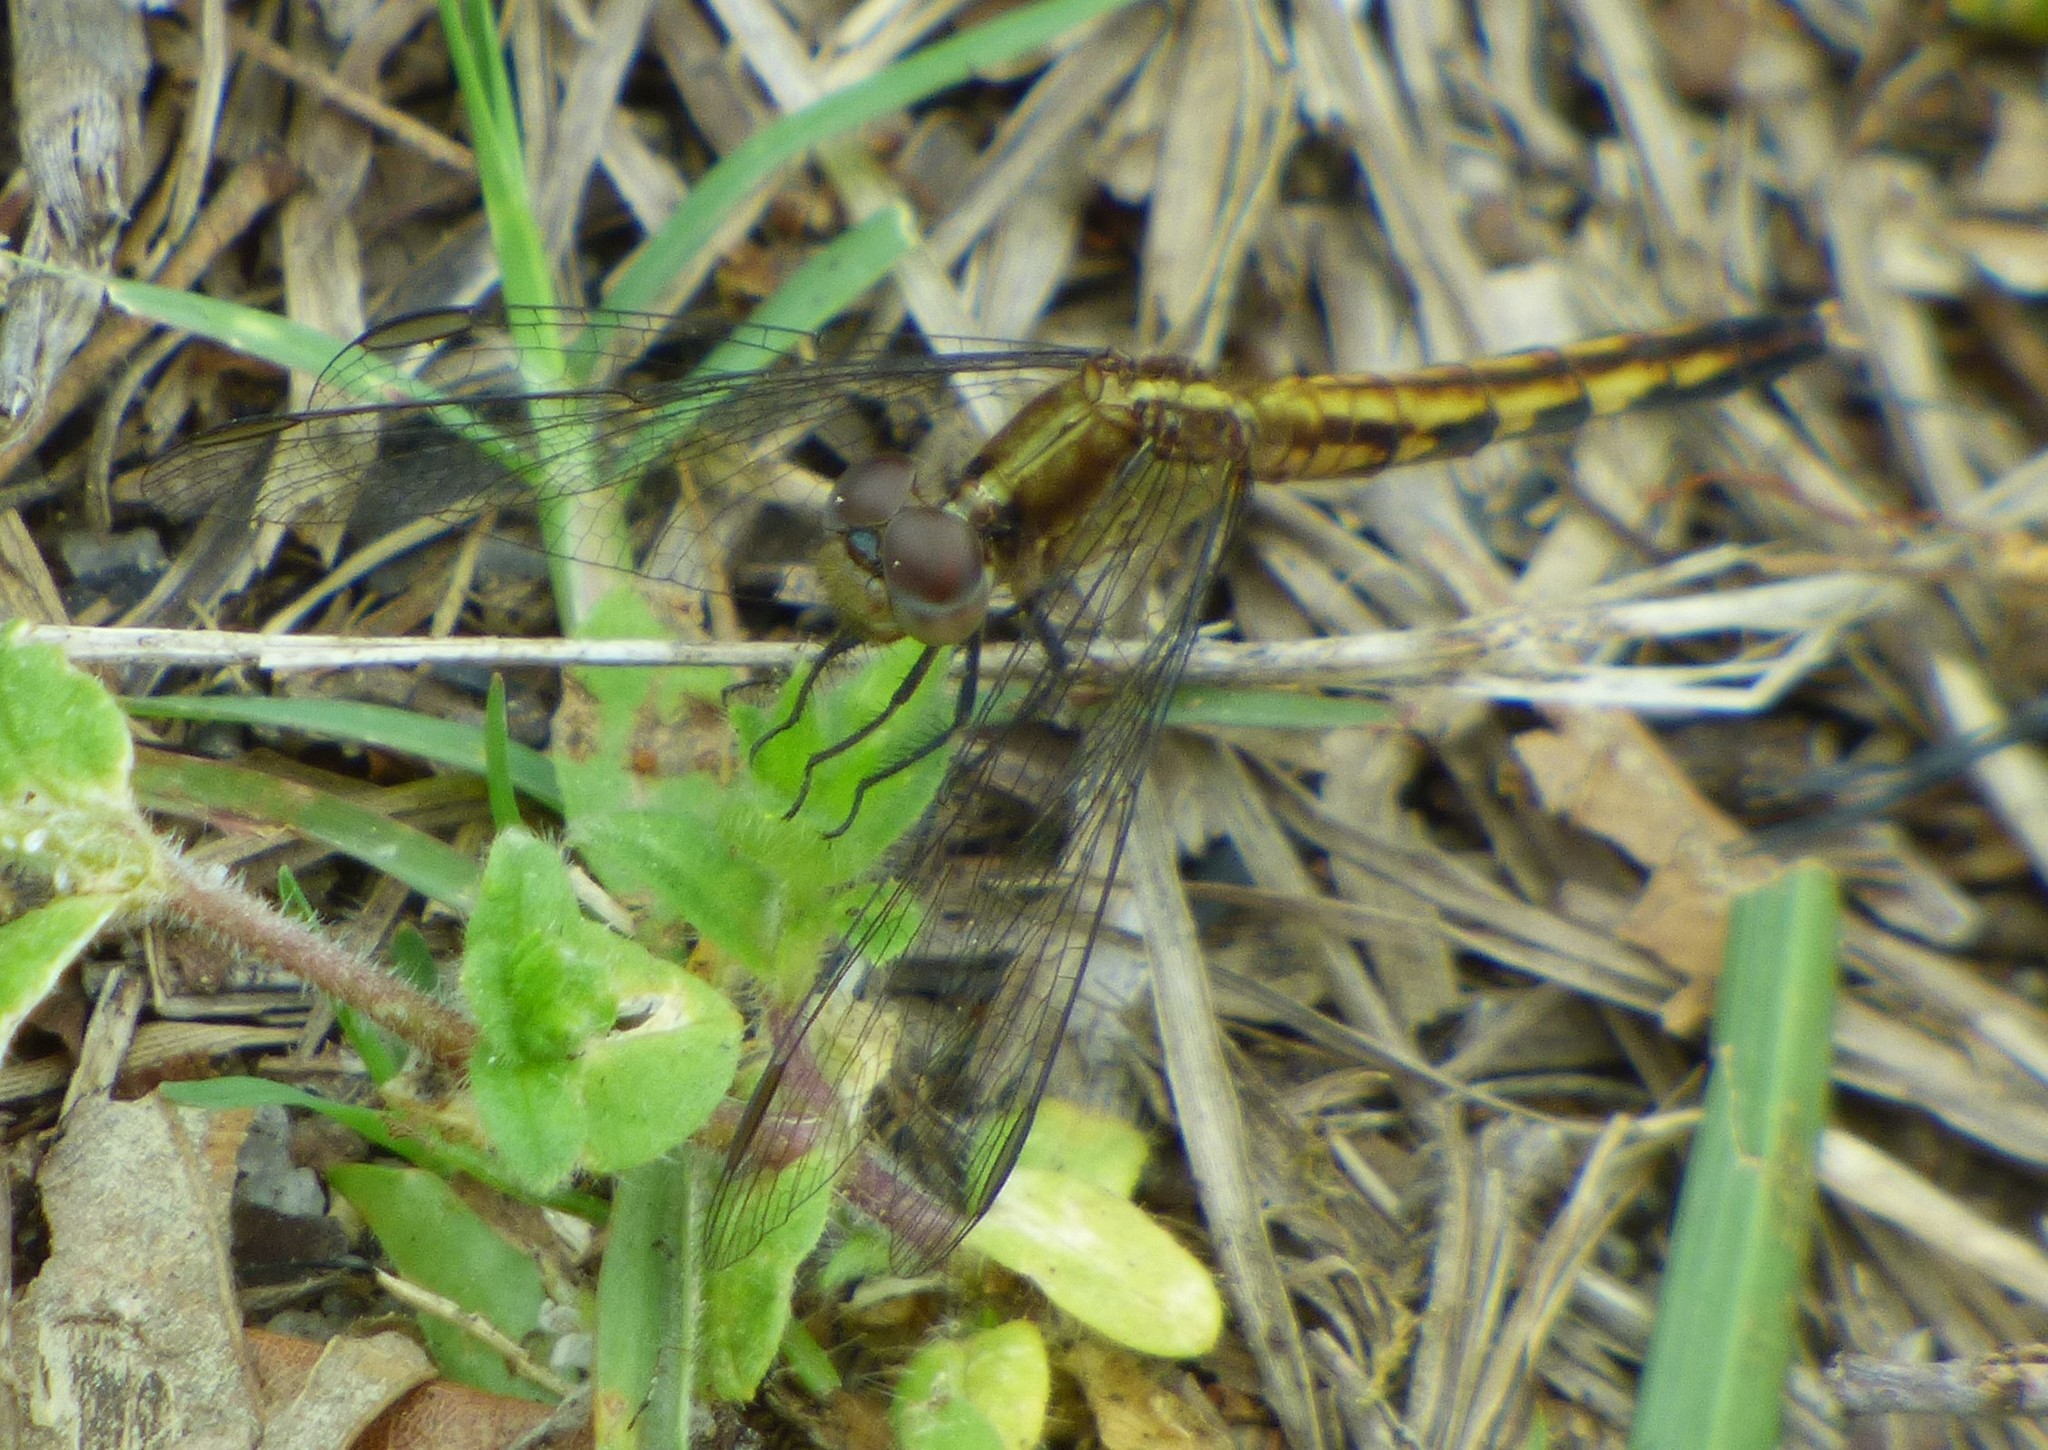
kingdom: Animalia
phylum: Arthropoda
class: Insecta
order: Odonata
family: Libellulidae
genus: Erythrodiplax
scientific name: Erythrodiplax minuscula
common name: Little blue dragonlet
